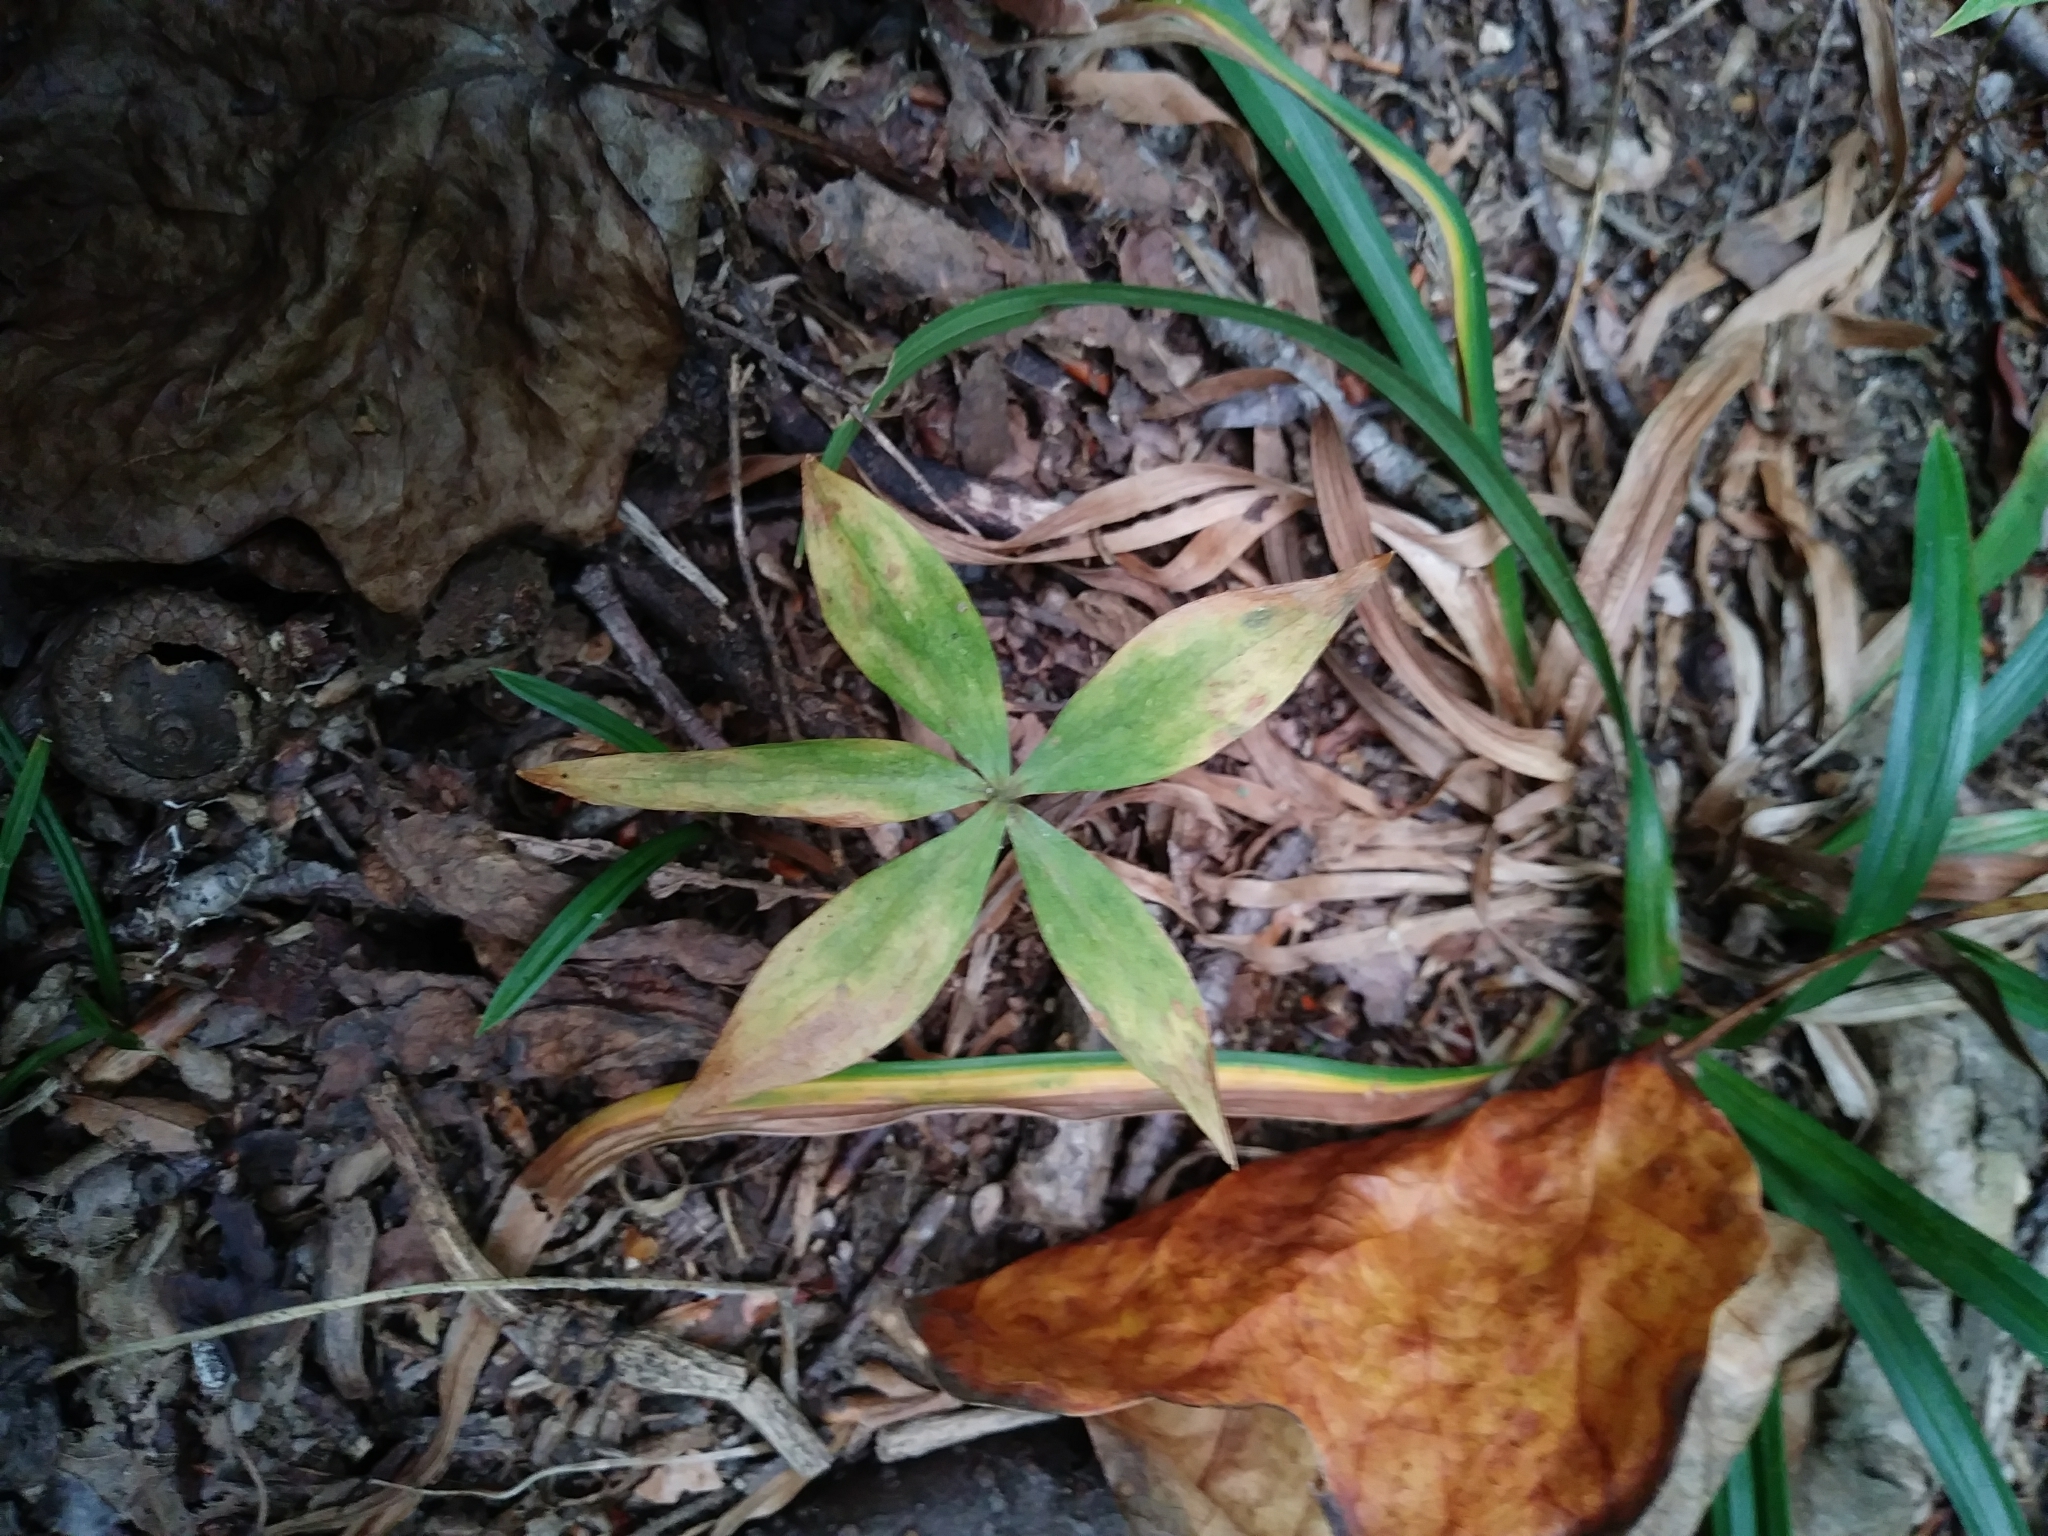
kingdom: Plantae
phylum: Tracheophyta
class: Liliopsida
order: Liliales
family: Liliaceae
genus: Medeola
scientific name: Medeola virginiana
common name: Indian cucumber-root
